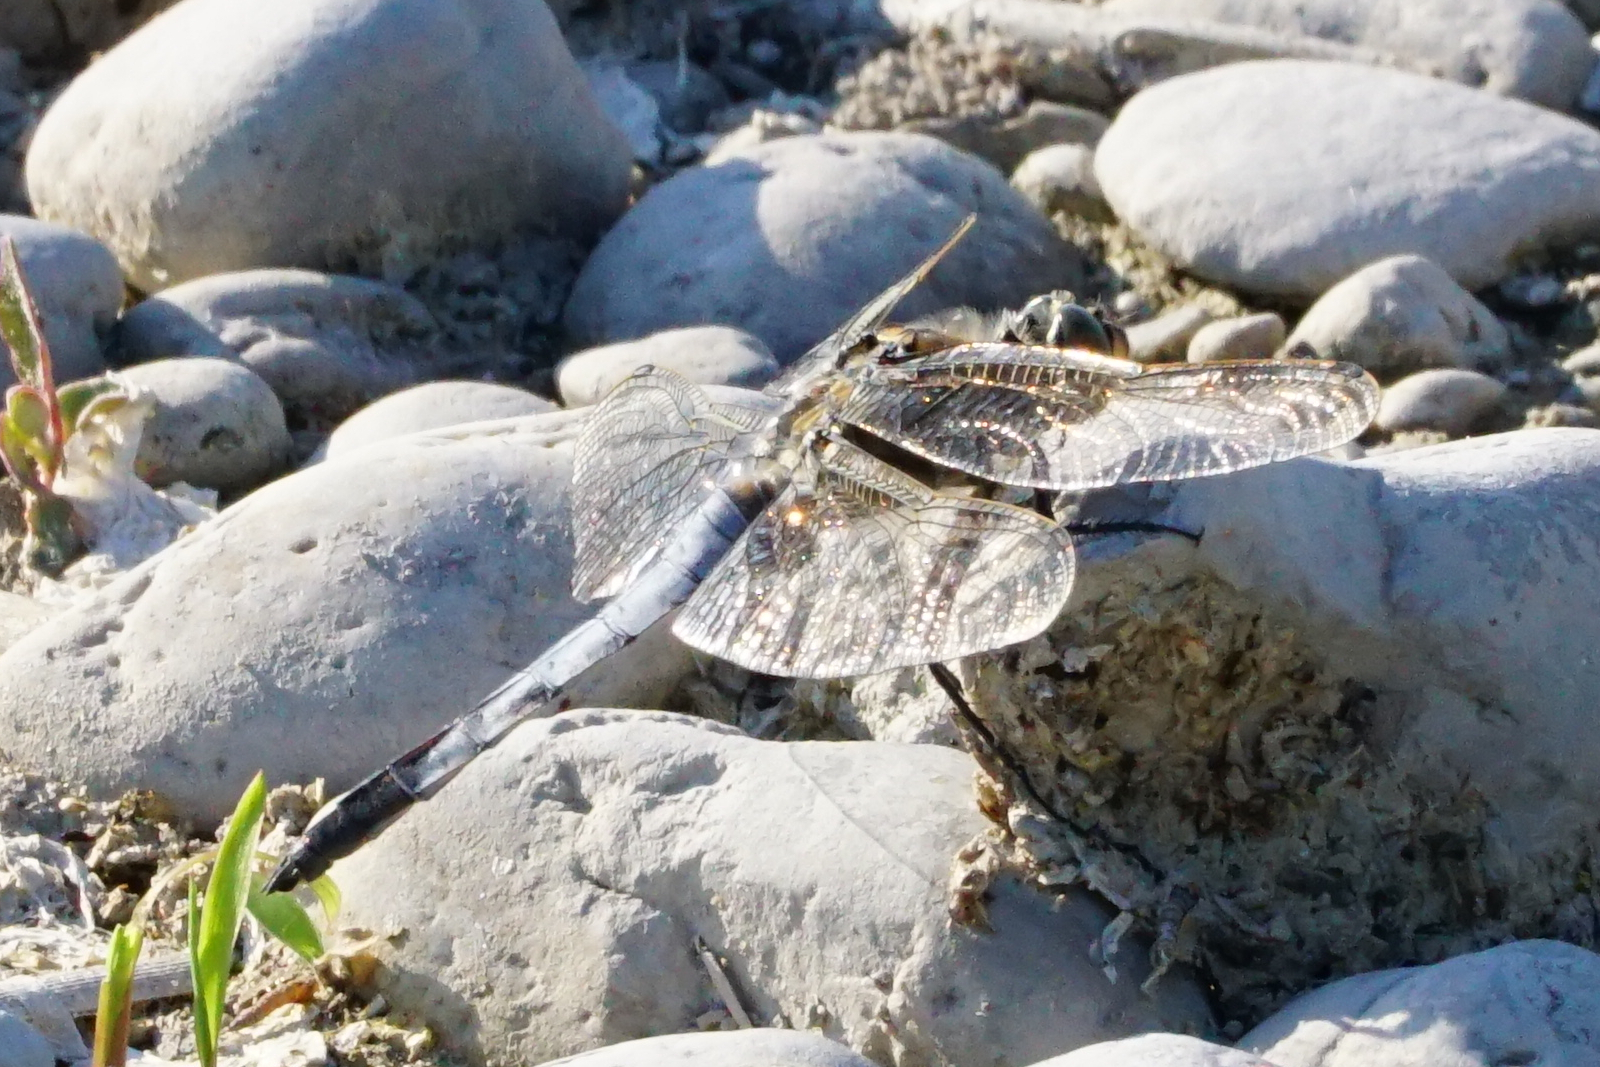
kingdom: Animalia
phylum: Arthropoda
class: Insecta
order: Odonata
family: Libellulidae
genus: Orthetrum
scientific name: Orthetrum cancellatum
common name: Black-tailed skimmer
